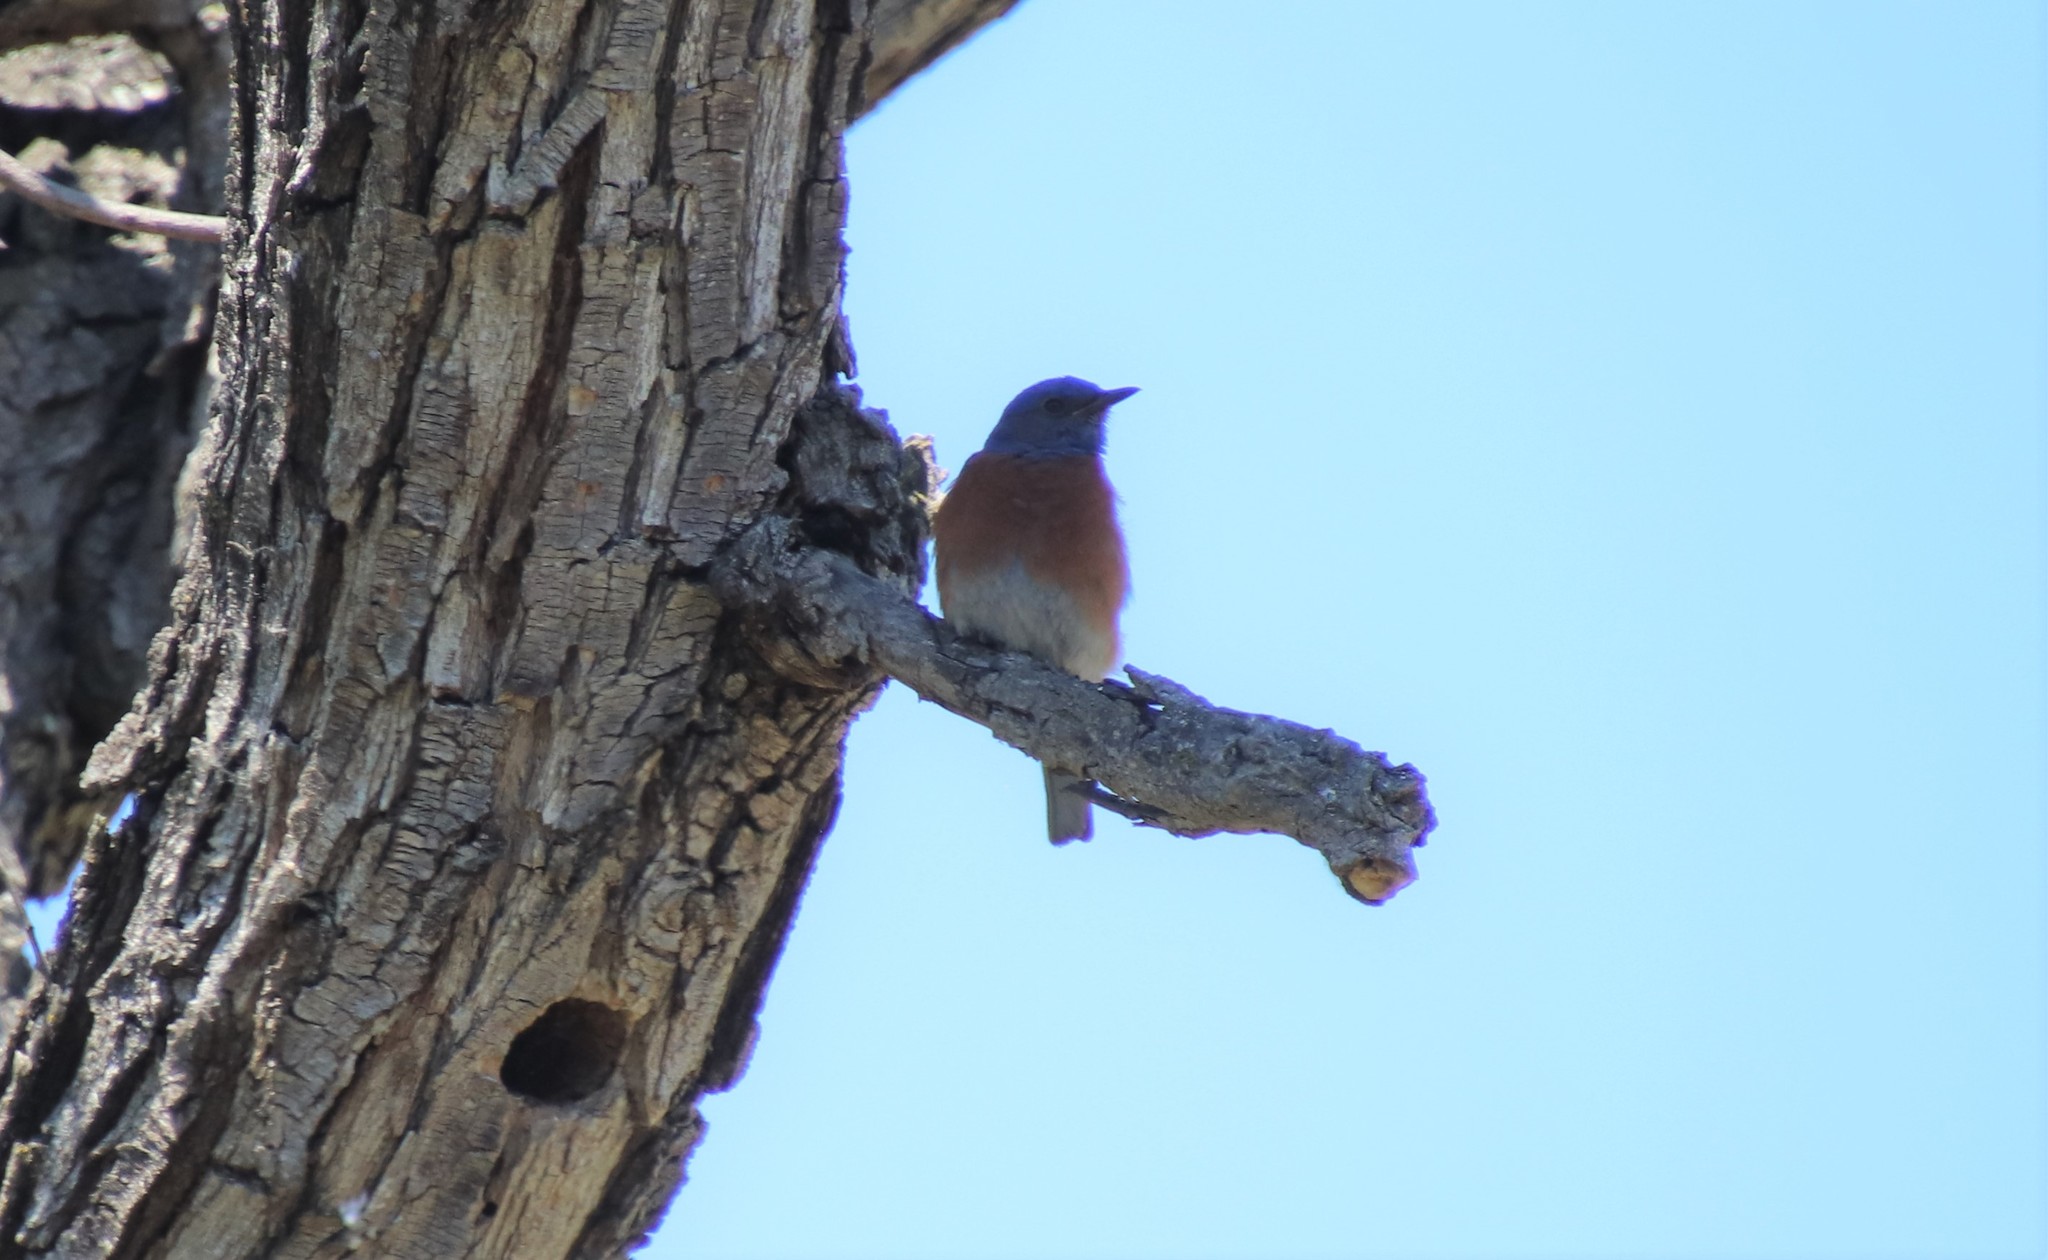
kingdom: Animalia
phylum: Chordata
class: Aves
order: Passeriformes
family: Turdidae
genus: Sialia
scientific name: Sialia mexicana
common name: Western bluebird
